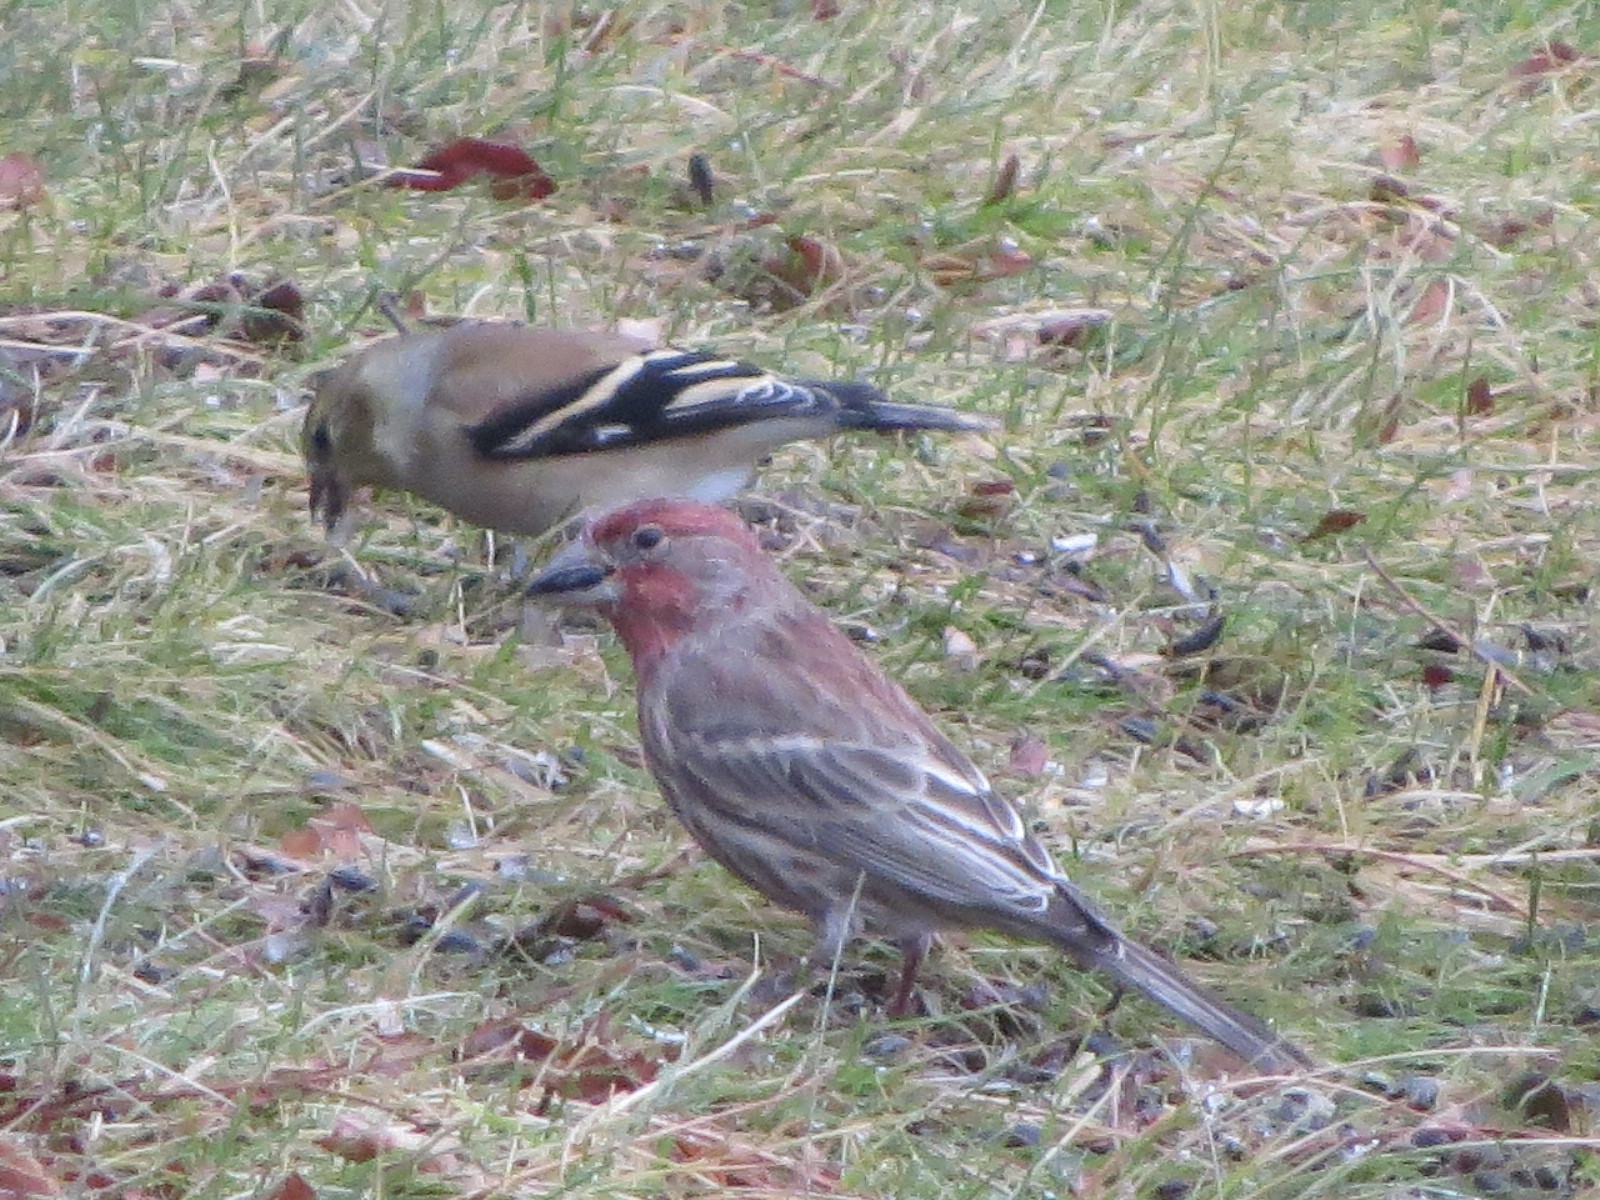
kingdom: Animalia
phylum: Chordata
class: Aves
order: Passeriformes
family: Fringillidae
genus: Haemorhous
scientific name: Haemorhous mexicanus
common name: House finch
